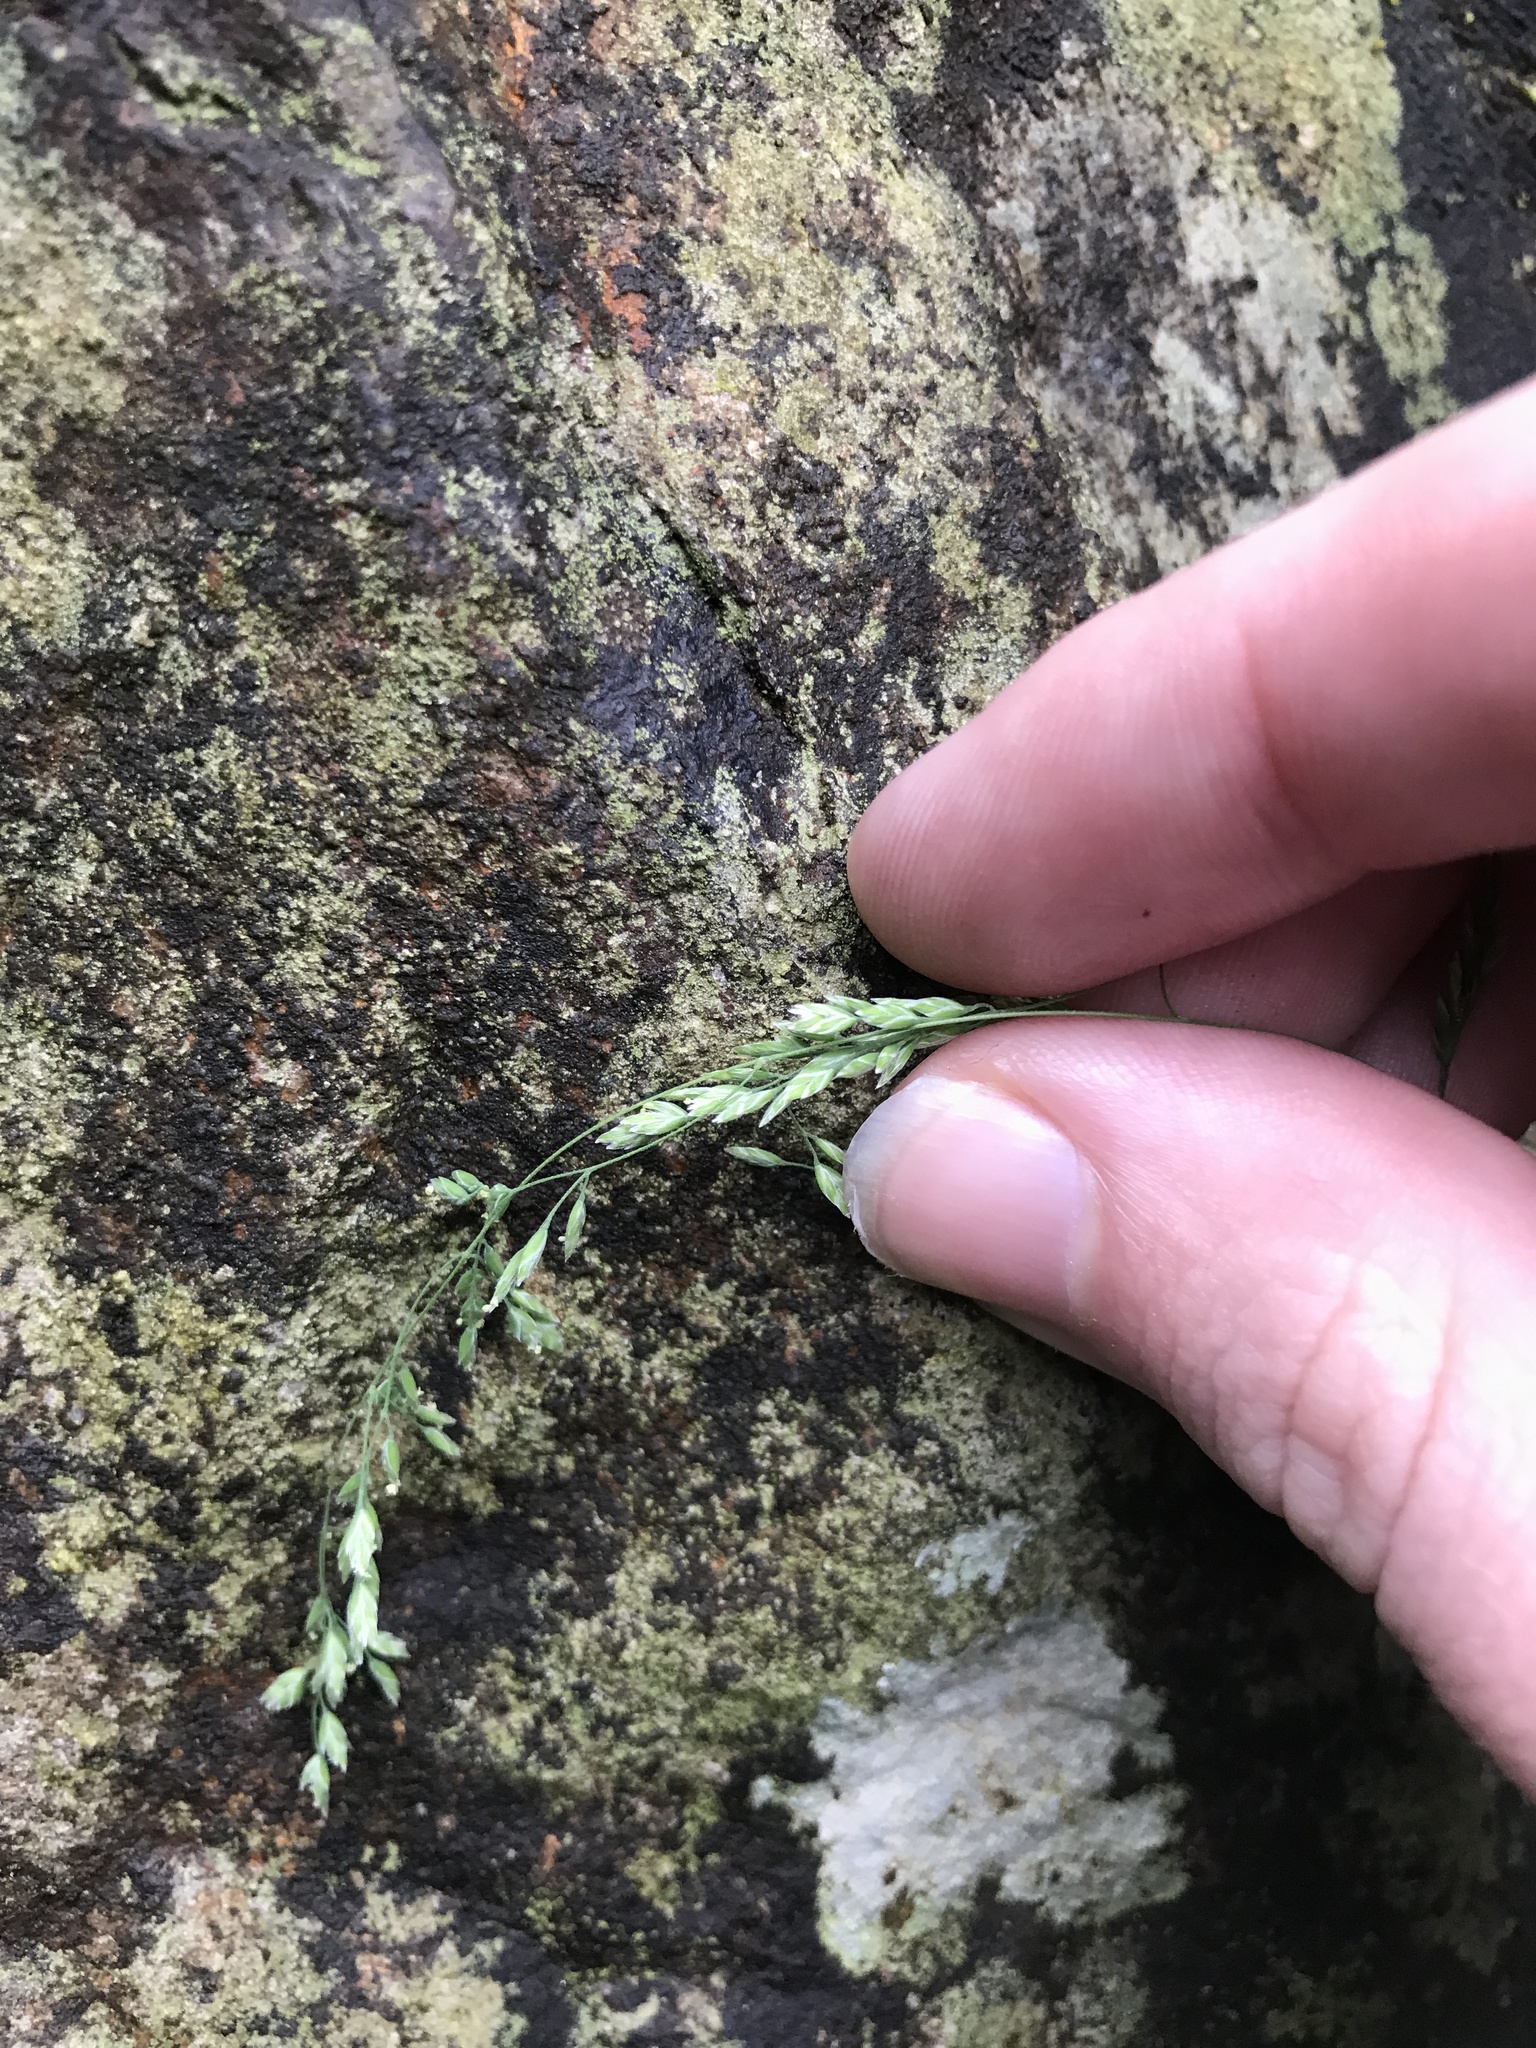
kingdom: Plantae
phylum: Tracheophyta
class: Liliopsida
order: Poales
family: Poaceae
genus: Poa
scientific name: Poa acroleuca
